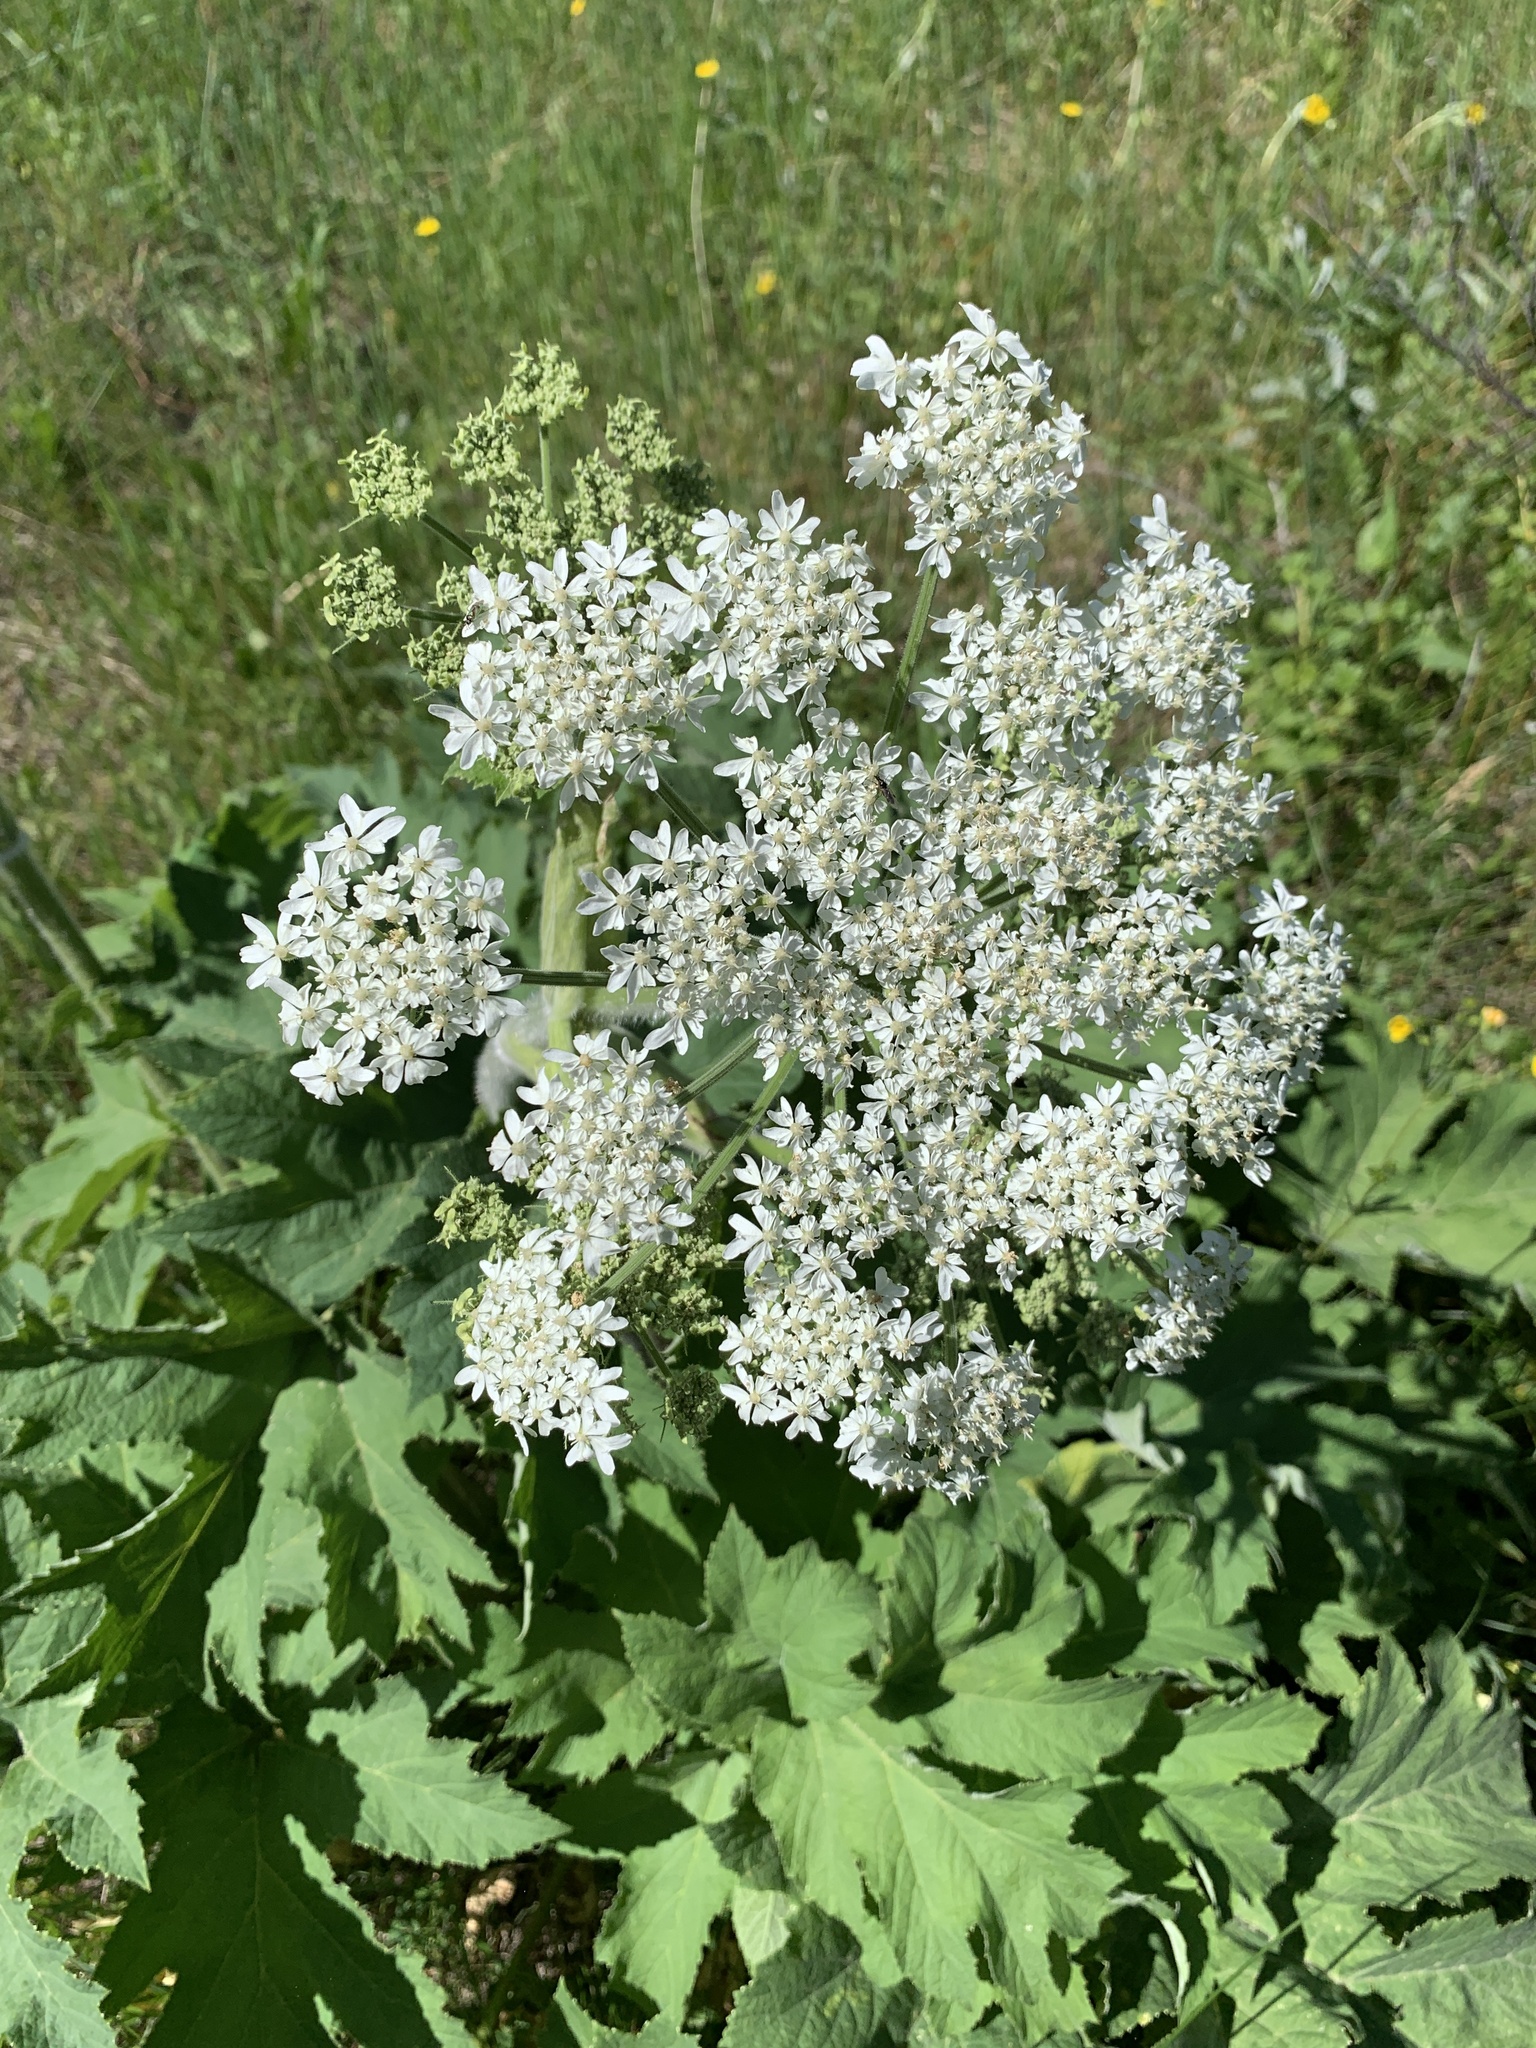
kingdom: Plantae
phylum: Tracheophyta
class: Magnoliopsida
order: Apiales
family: Apiaceae
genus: Heracleum
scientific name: Heracleum maximum
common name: American cow parsnip
